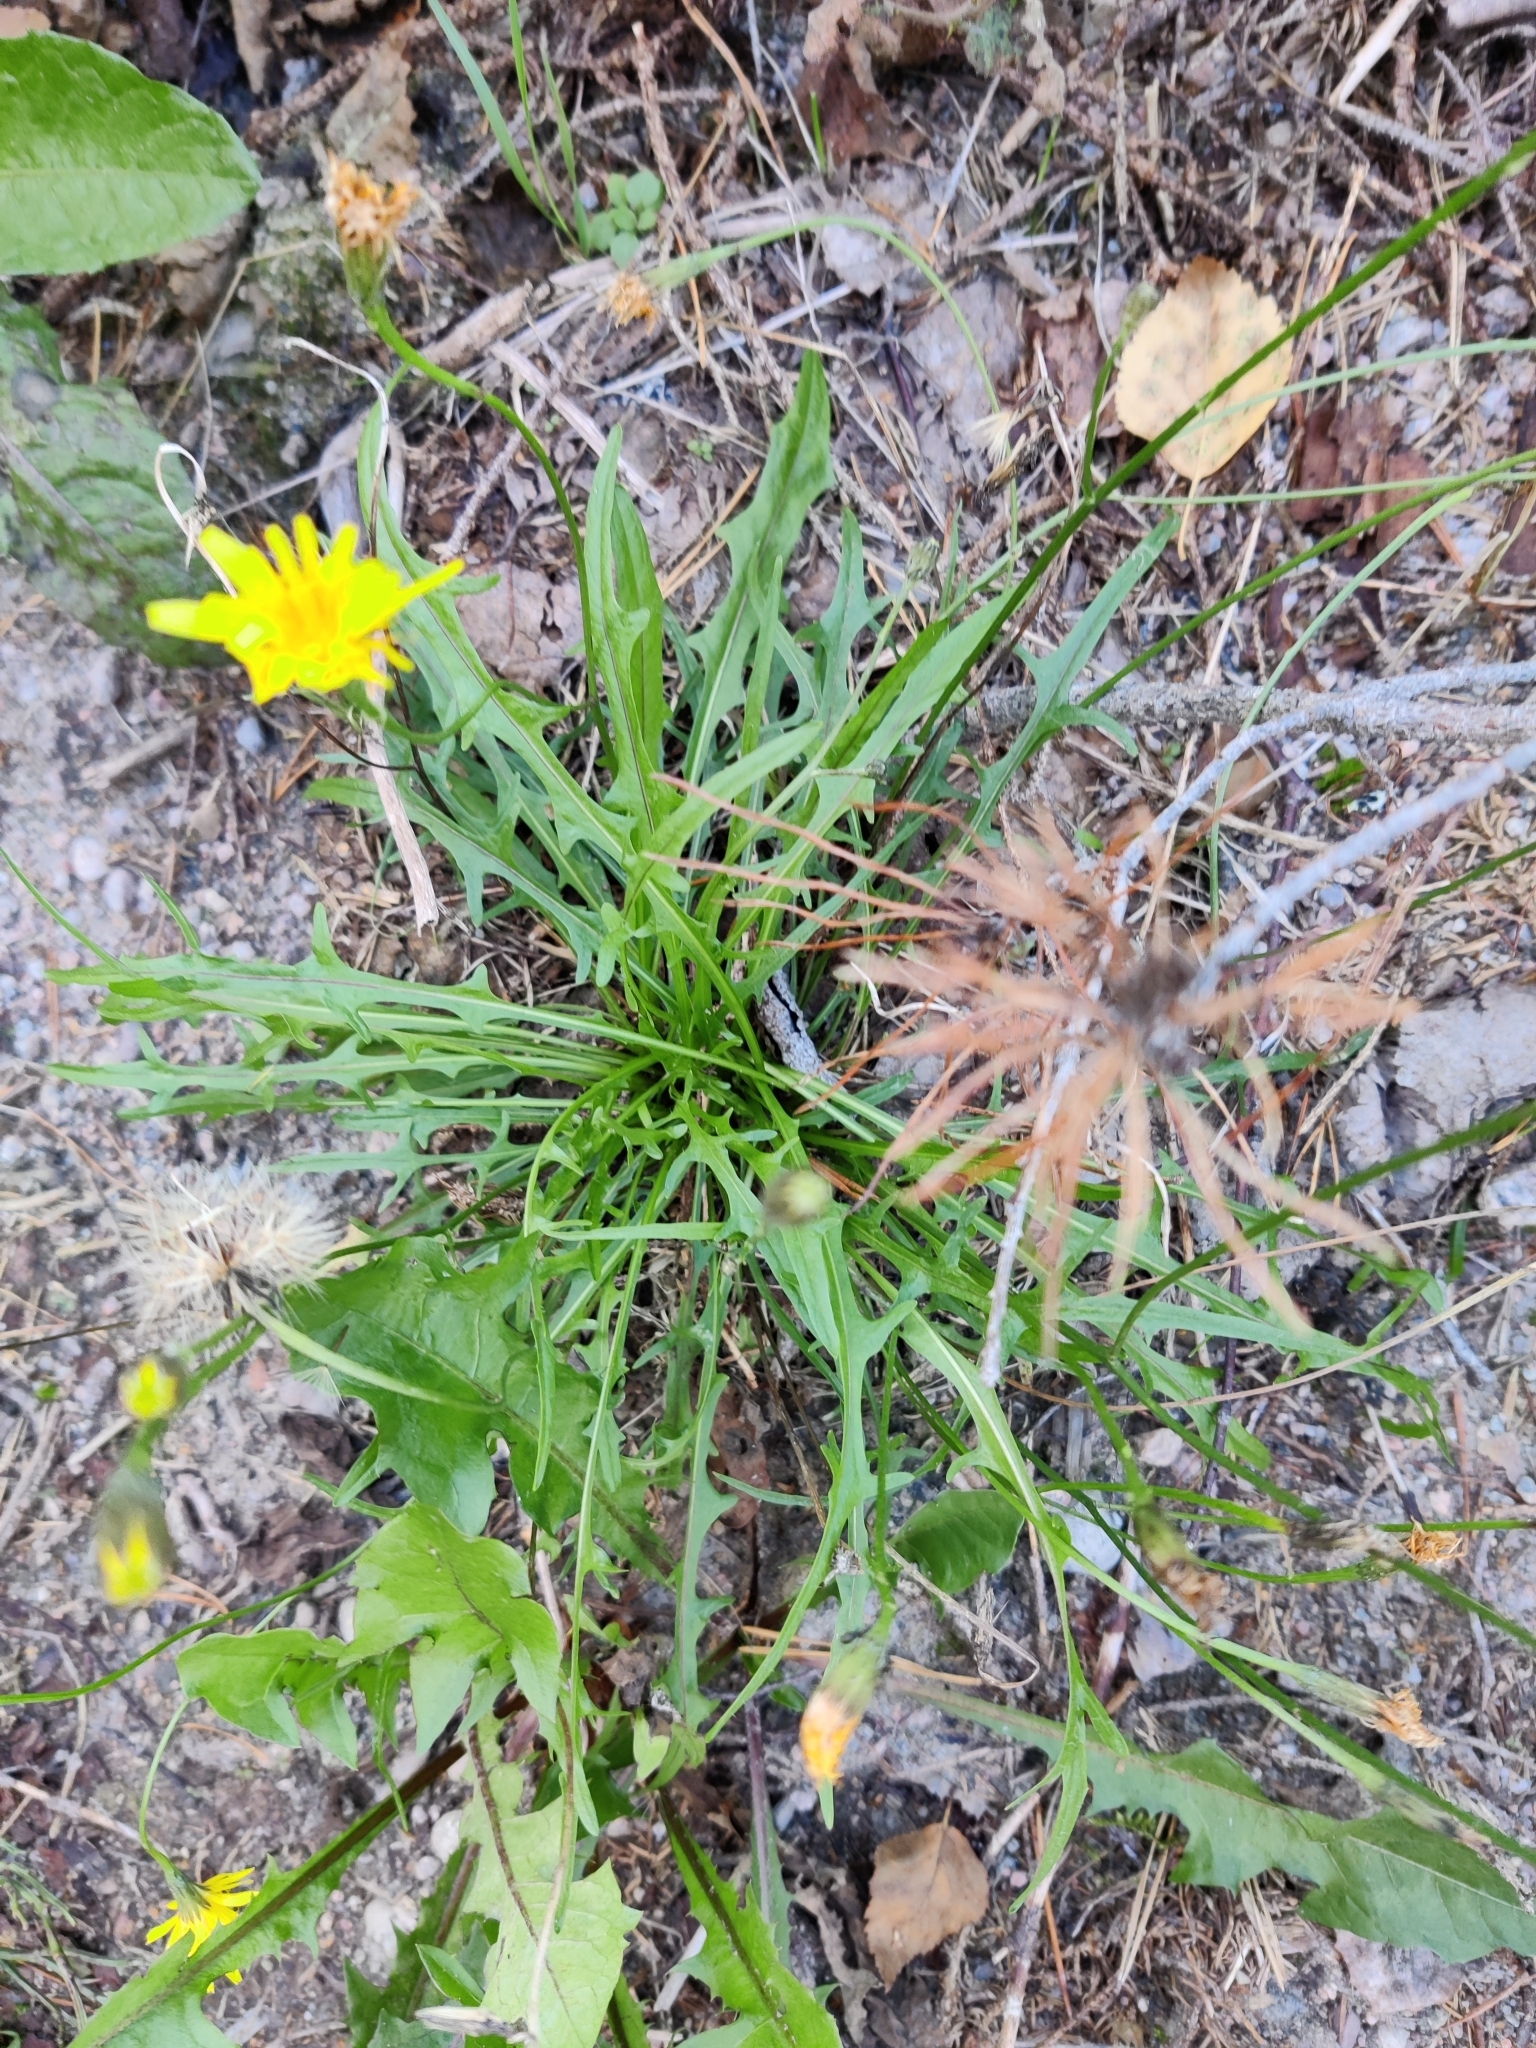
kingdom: Plantae
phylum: Tracheophyta
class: Magnoliopsida
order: Asterales
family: Asteraceae
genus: Scorzoneroides
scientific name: Scorzoneroides autumnalis
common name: Autumn hawkbit
